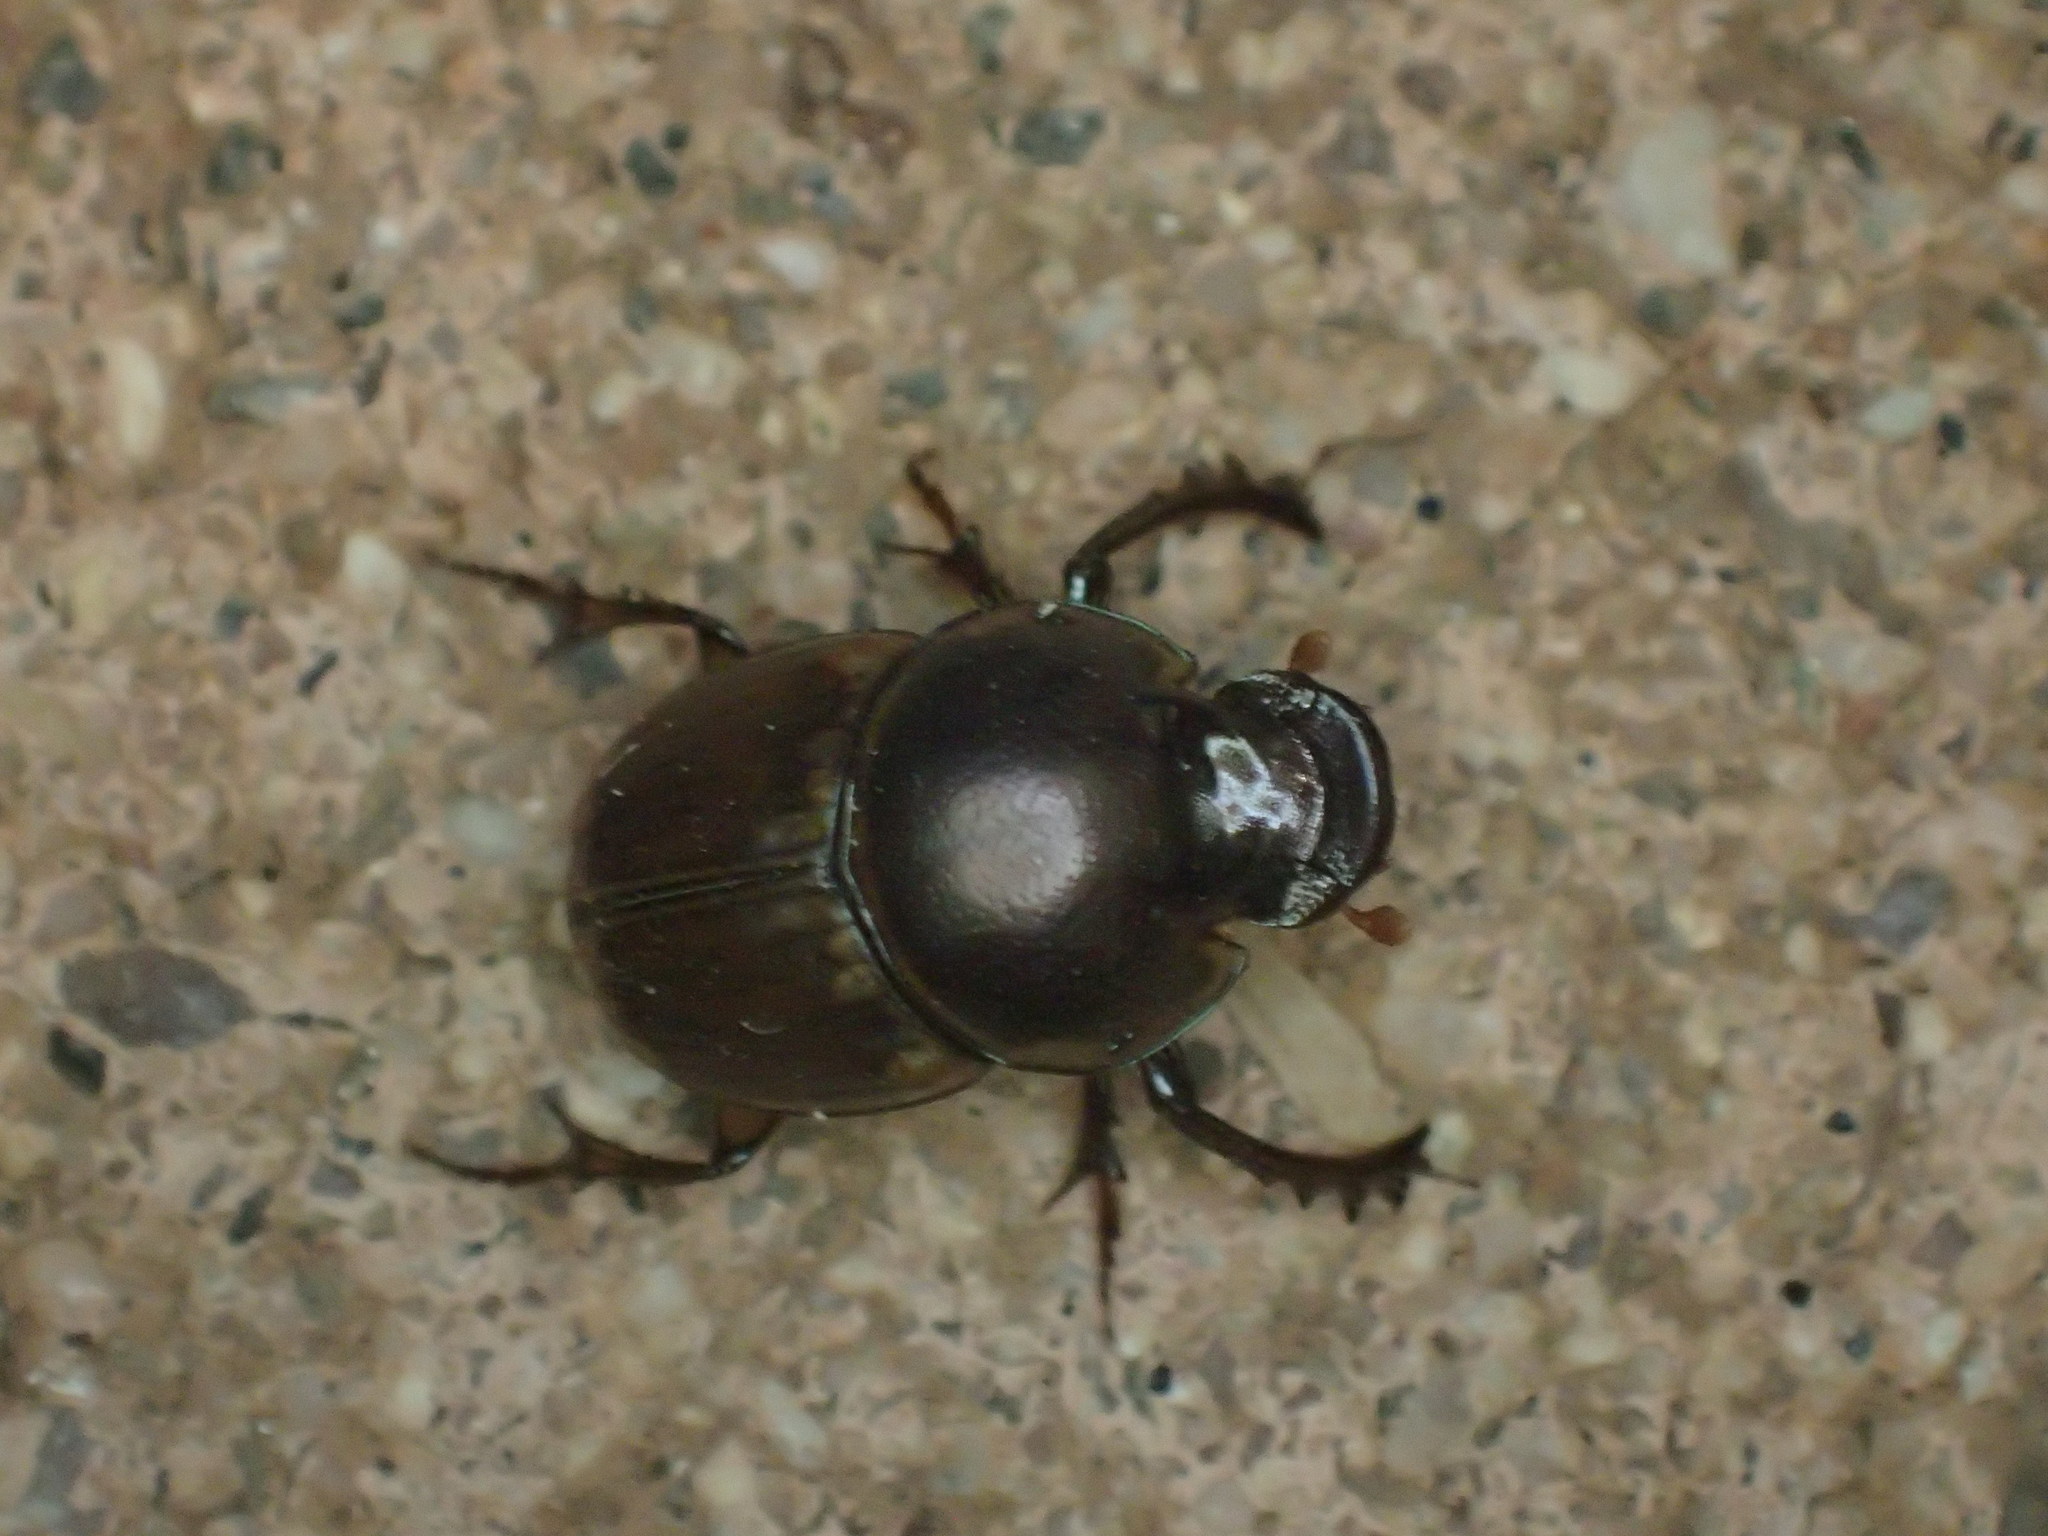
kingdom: Animalia
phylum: Arthropoda
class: Insecta
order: Coleoptera
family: Scarabaeidae
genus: Digitonthophagus
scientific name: Digitonthophagus gazella
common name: Brown dung beetle
